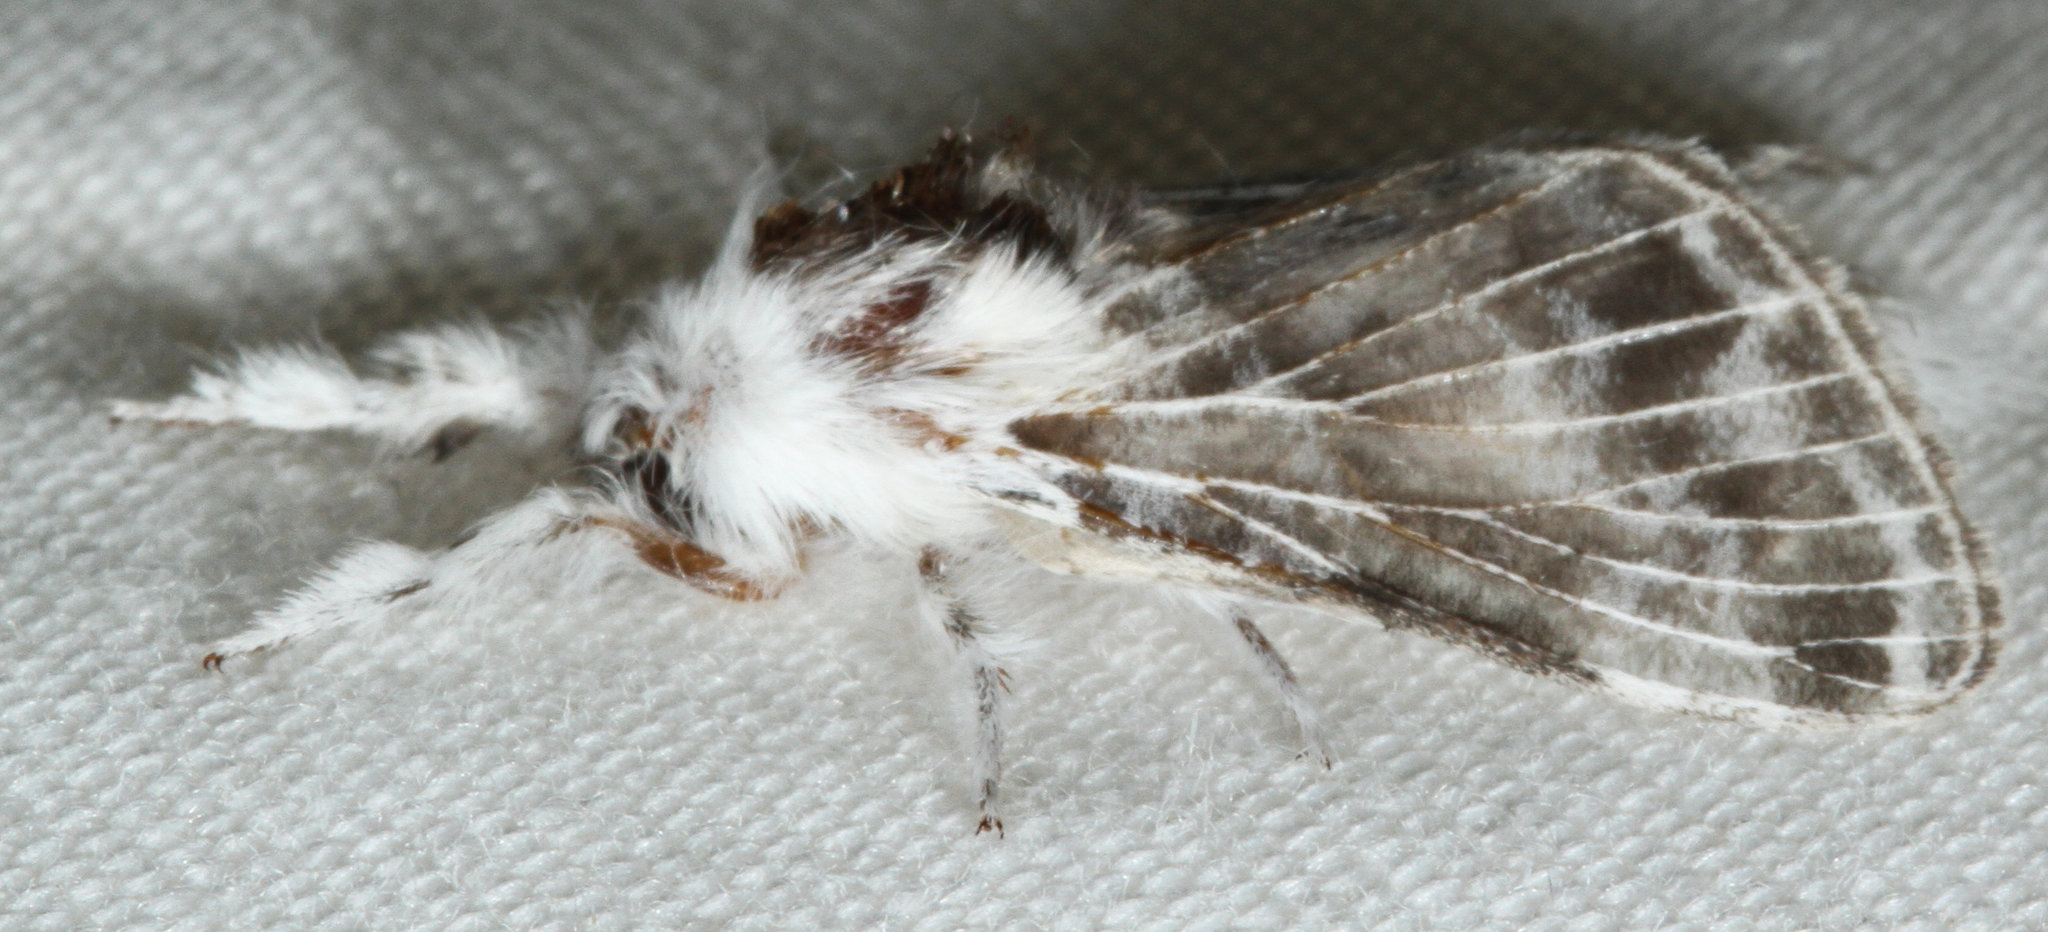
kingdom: Animalia
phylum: Arthropoda
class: Insecta
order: Lepidoptera
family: Lasiocampidae
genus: Tolype
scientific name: Tolype notialis
